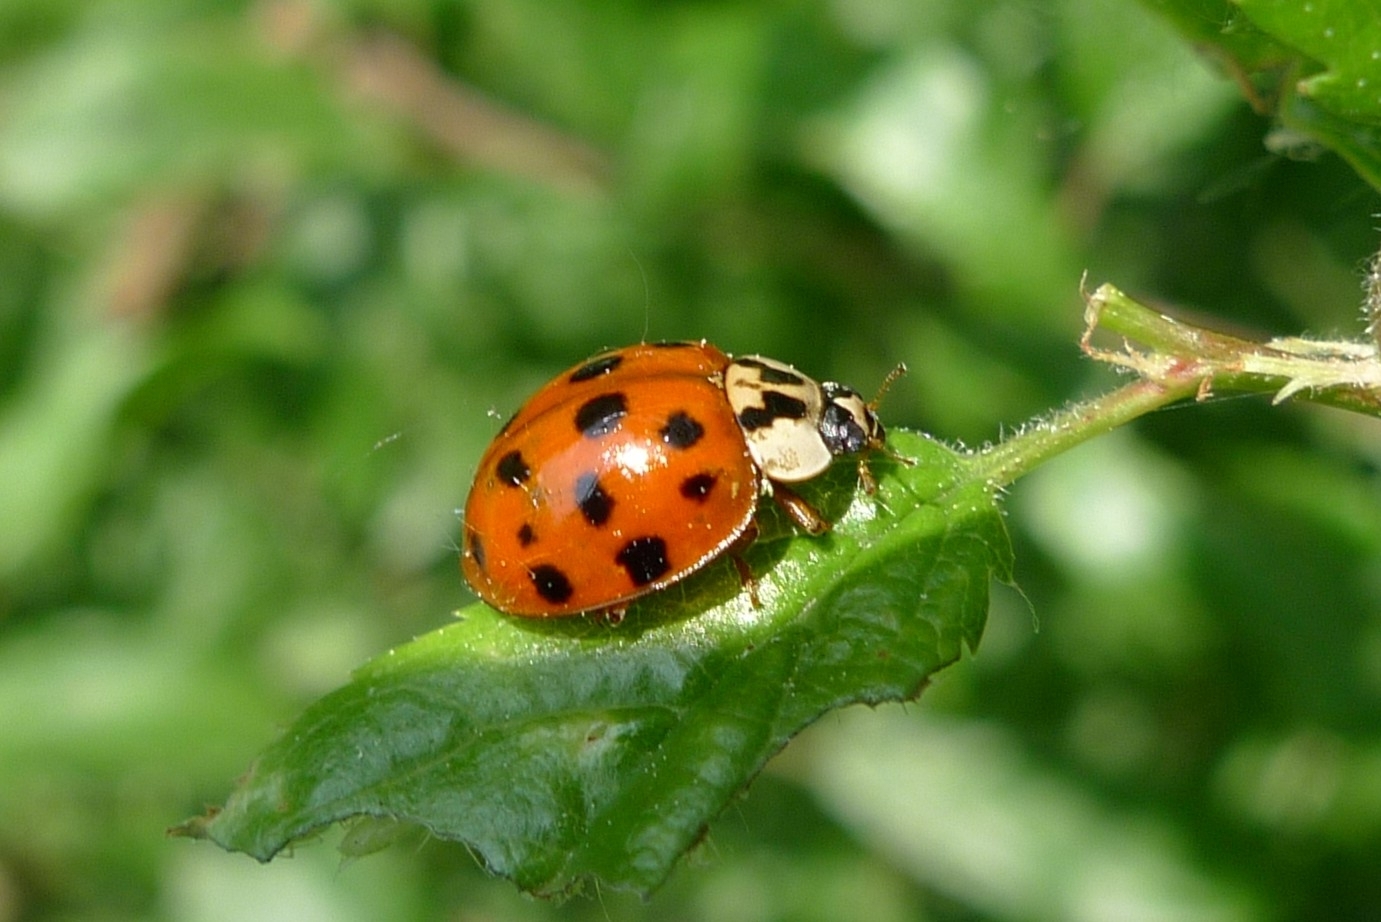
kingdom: Animalia
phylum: Arthropoda
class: Insecta
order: Coleoptera
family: Coccinellidae
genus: Harmonia
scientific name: Harmonia axyridis
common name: Harlequin ladybird
